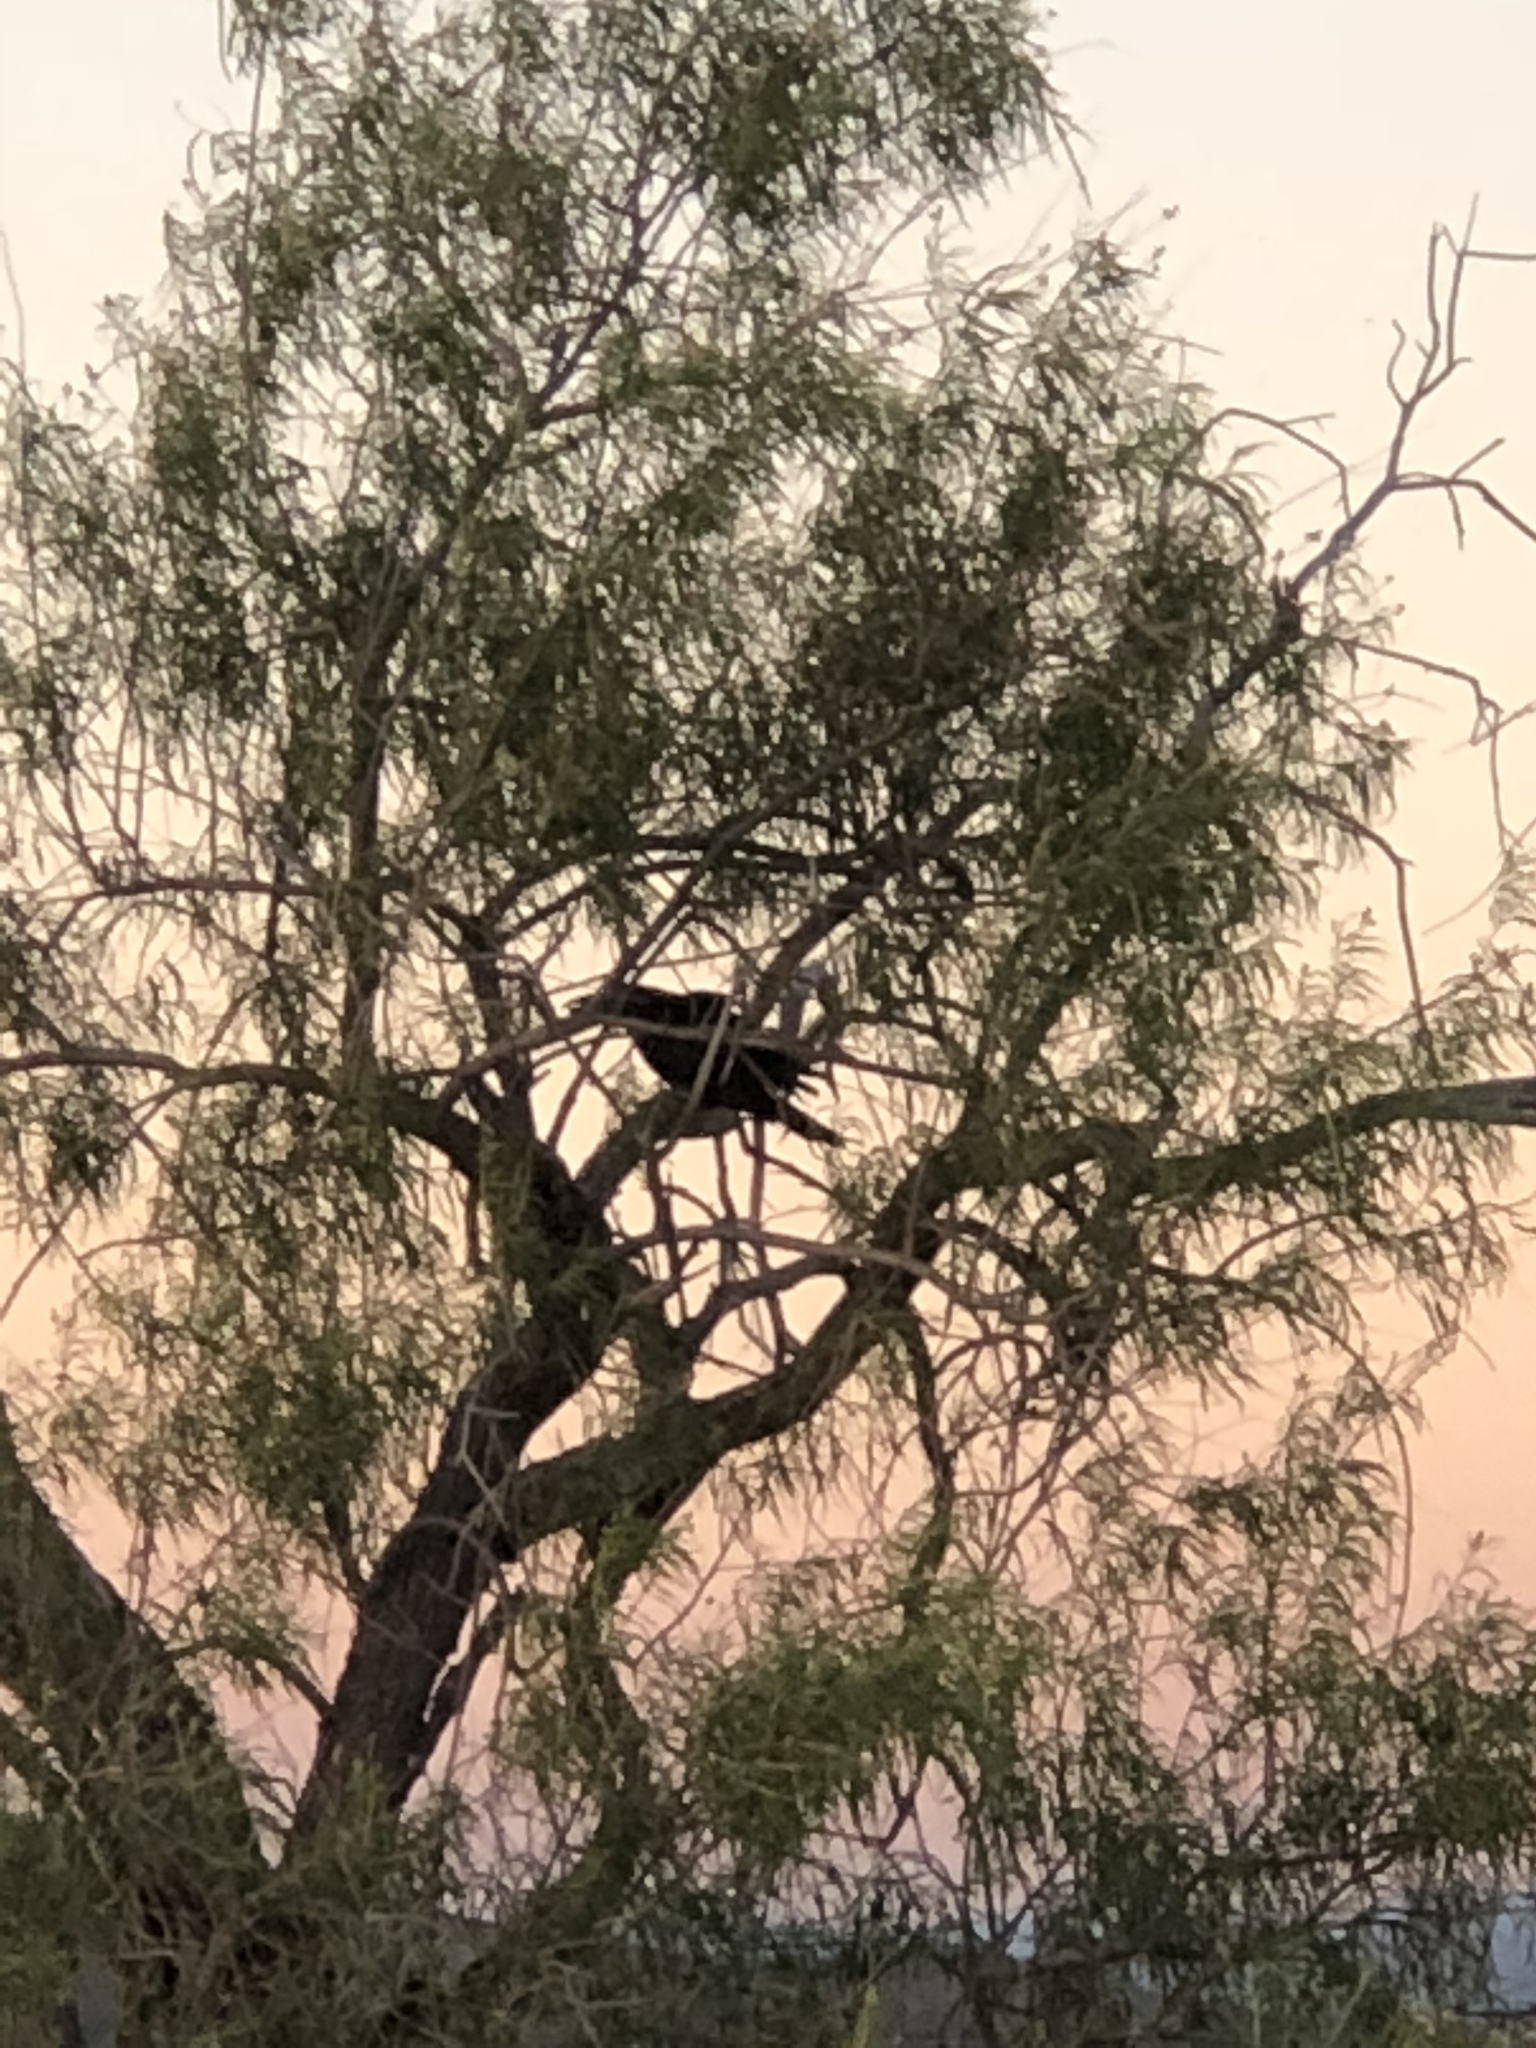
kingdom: Plantae
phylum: Tracheophyta
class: Magnoliopsida
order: Lamiales
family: Bignoniaceae
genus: Chilopsis
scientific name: Chilopsis linearis
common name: Desert-willow
